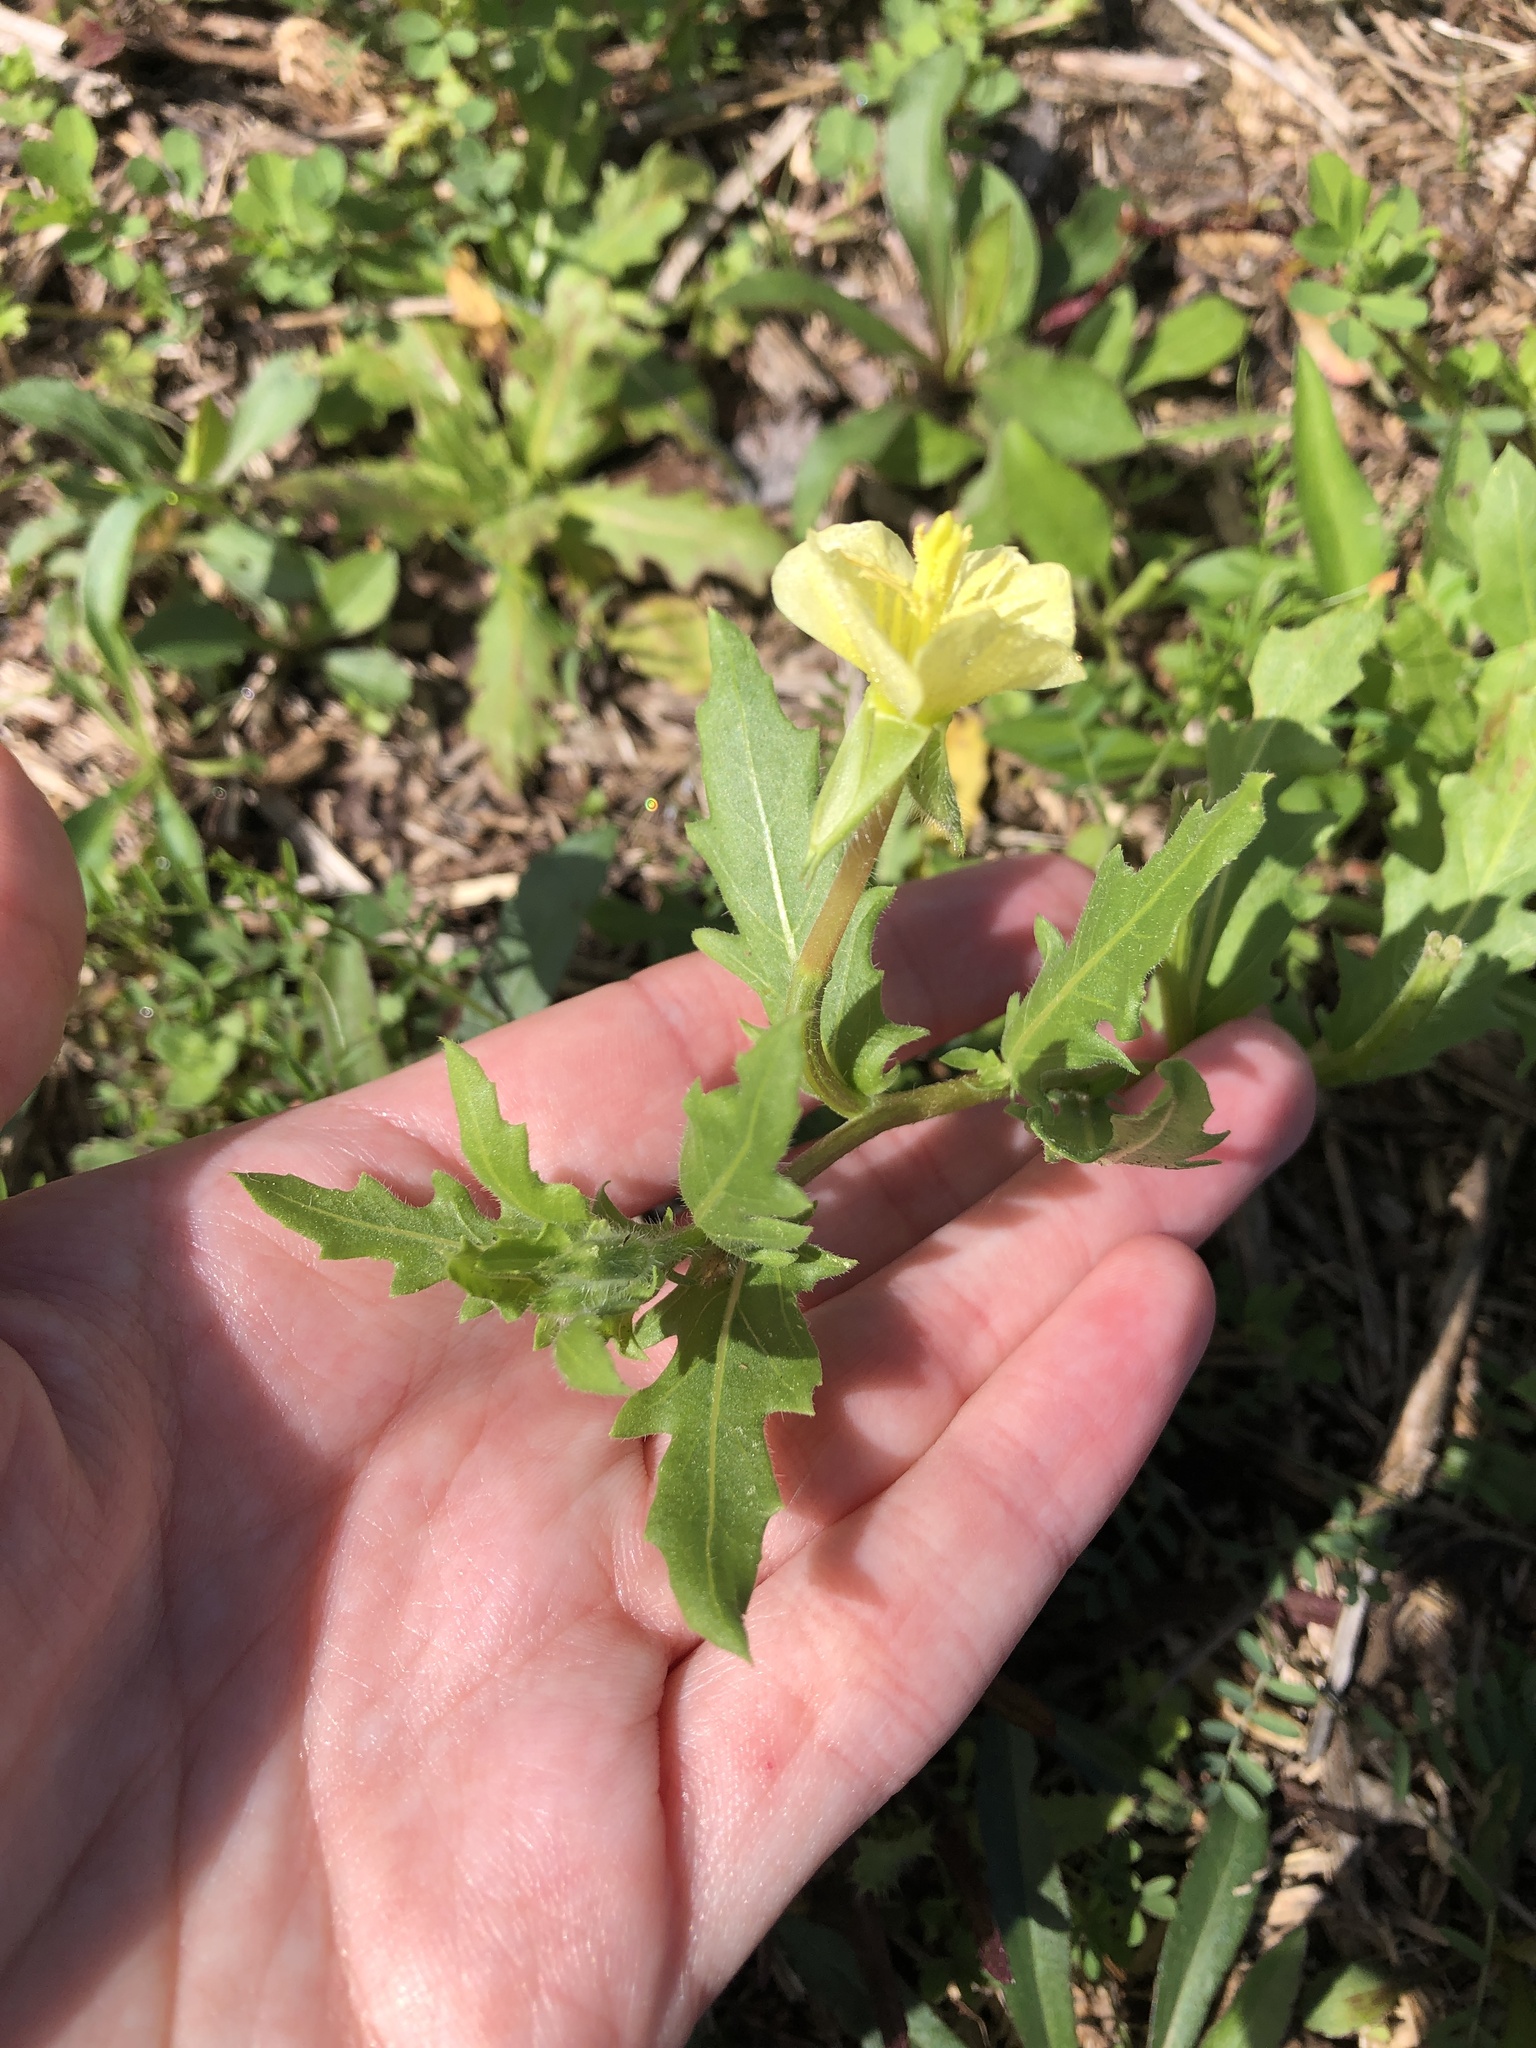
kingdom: Plantae
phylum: Tracheophyta
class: Magnoliopsida
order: Myrtales
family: Onagraceae
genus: Oenothera
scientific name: Oenothera laciniata
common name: Cut-leaved evening-primrose
